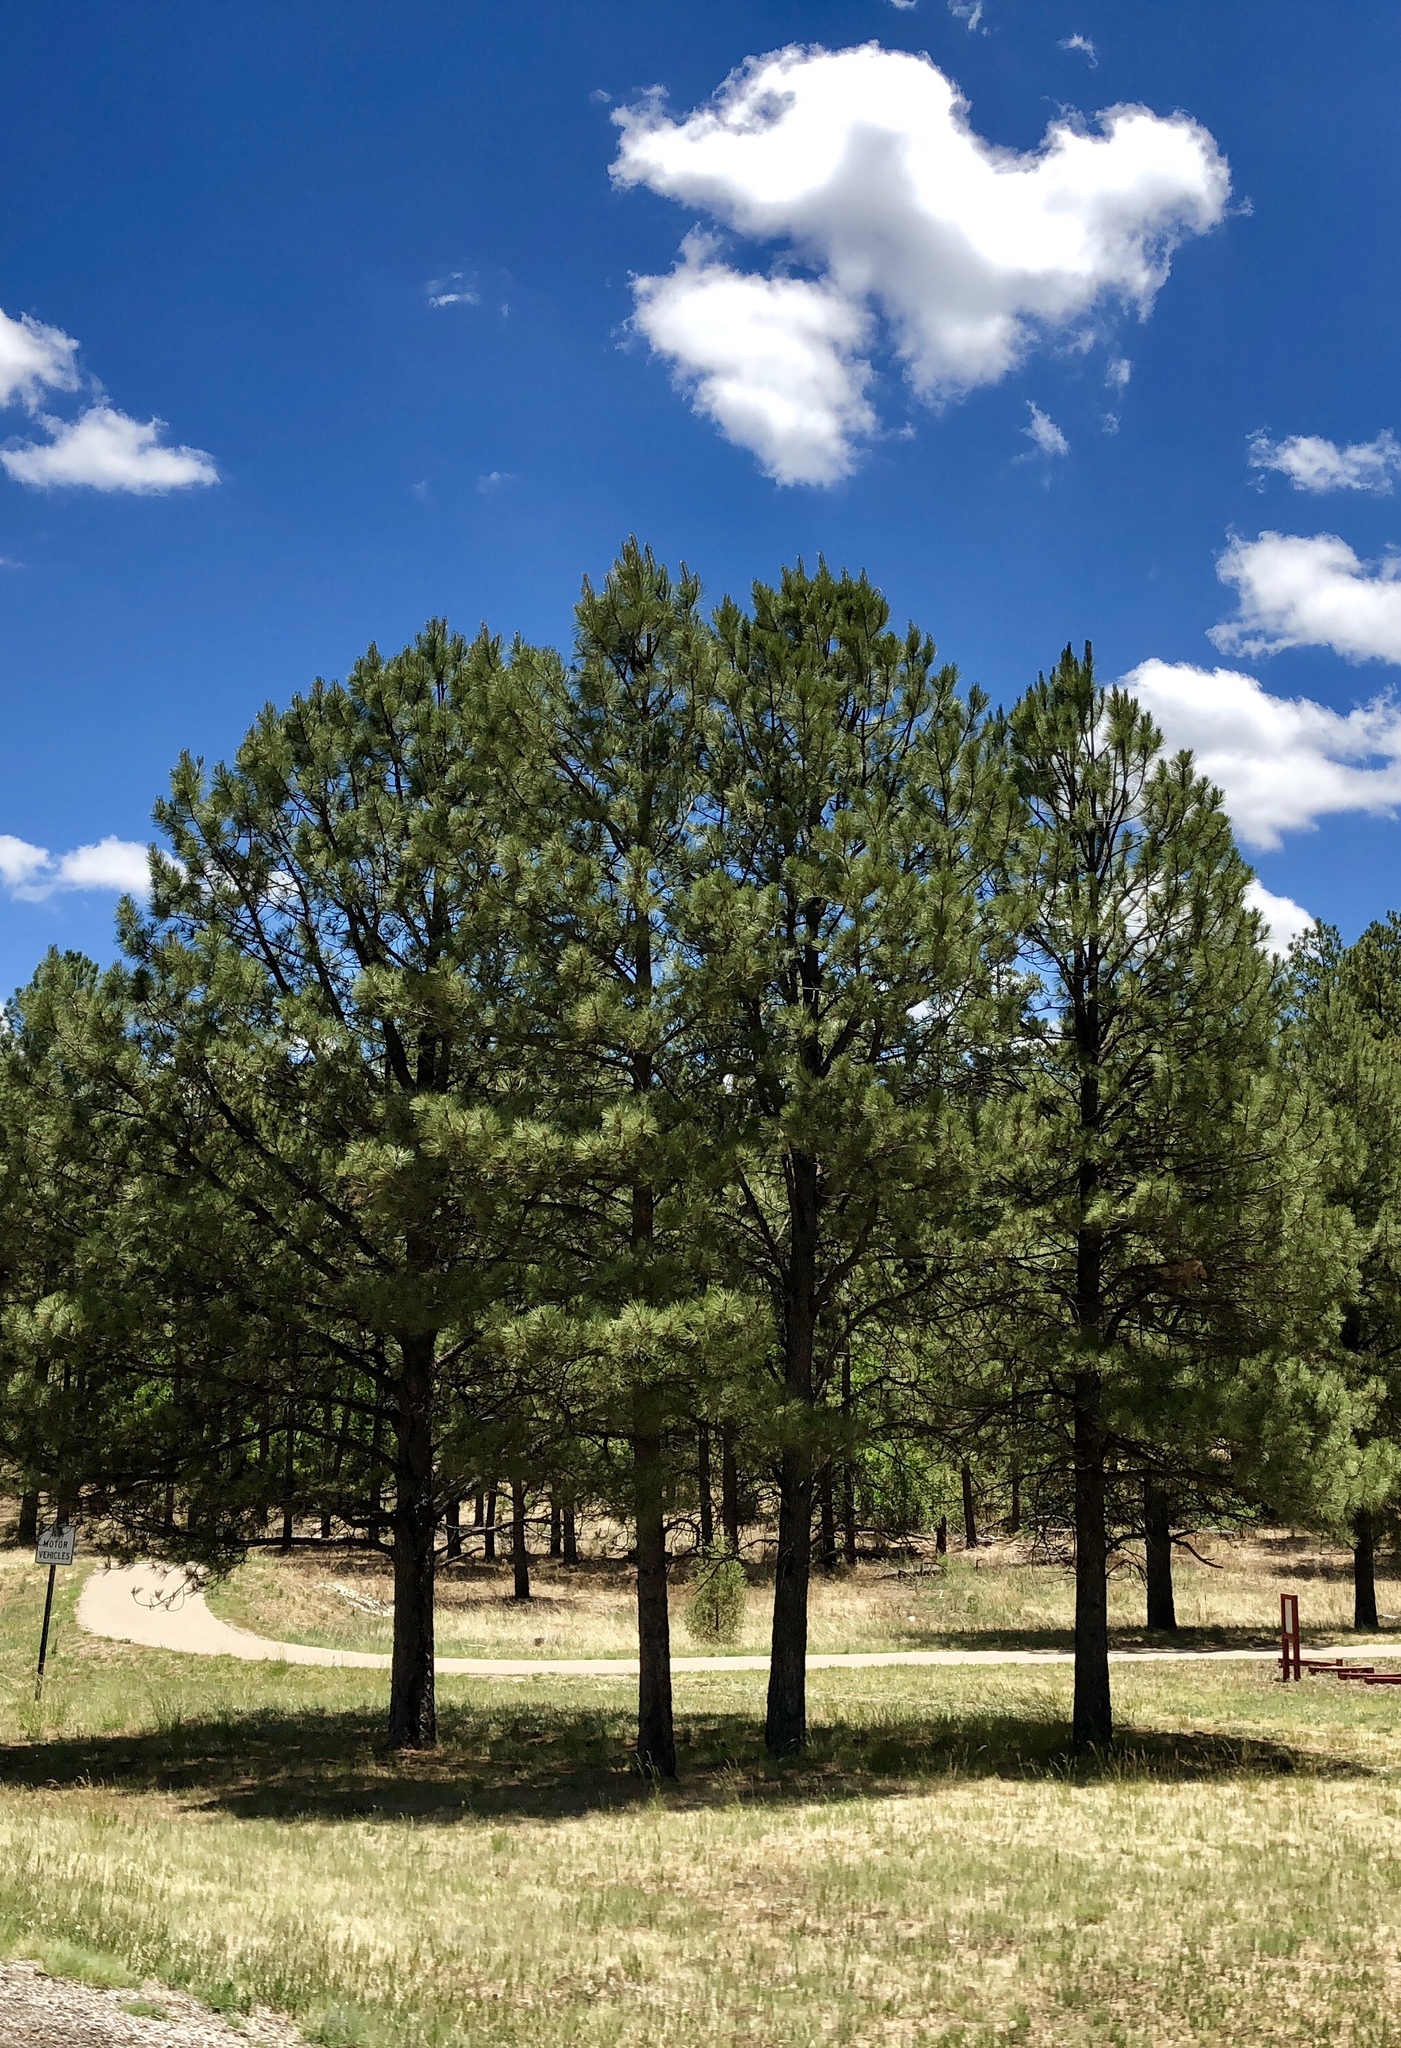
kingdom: Plantae
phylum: Tracheophyta
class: Pinopsida
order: Pinales
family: Pinaceae
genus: Pinus
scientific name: Pinus ponderosa
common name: Western yellow-pine
